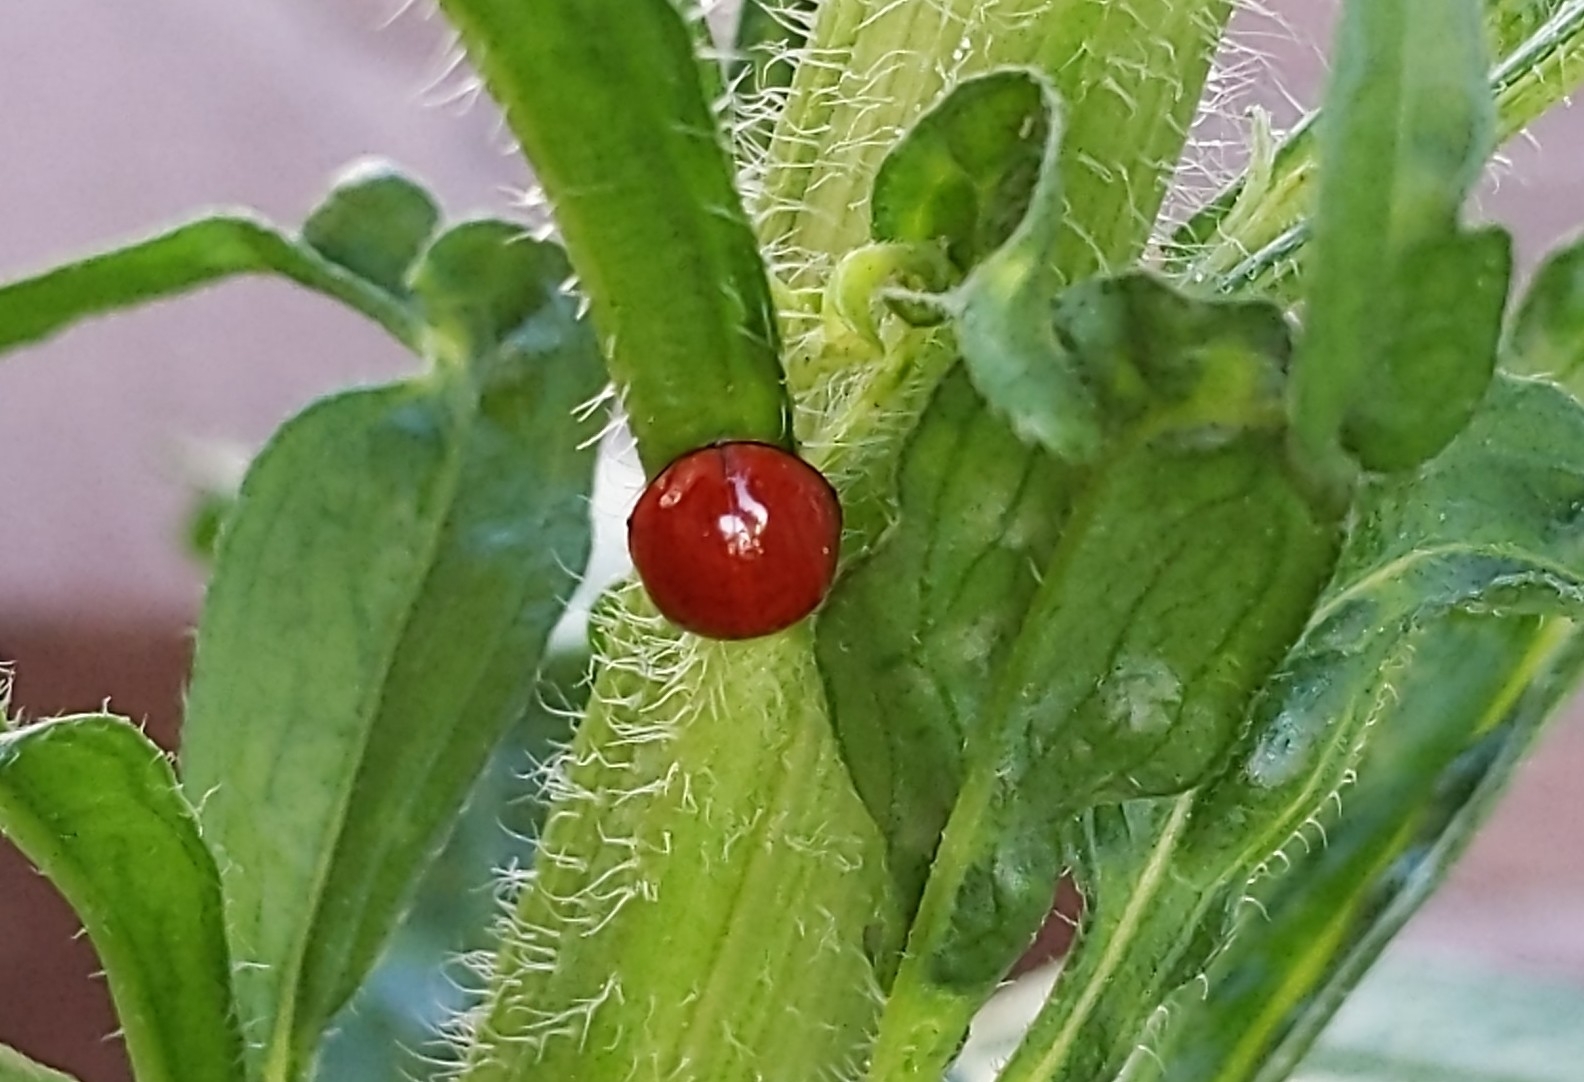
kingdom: Animalia
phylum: Arthropoda
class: Insecta
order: Coleoptera
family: Coccinellidae
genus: Cycloneda
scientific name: Cycloneda sanguinea
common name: Ladybird beetle
